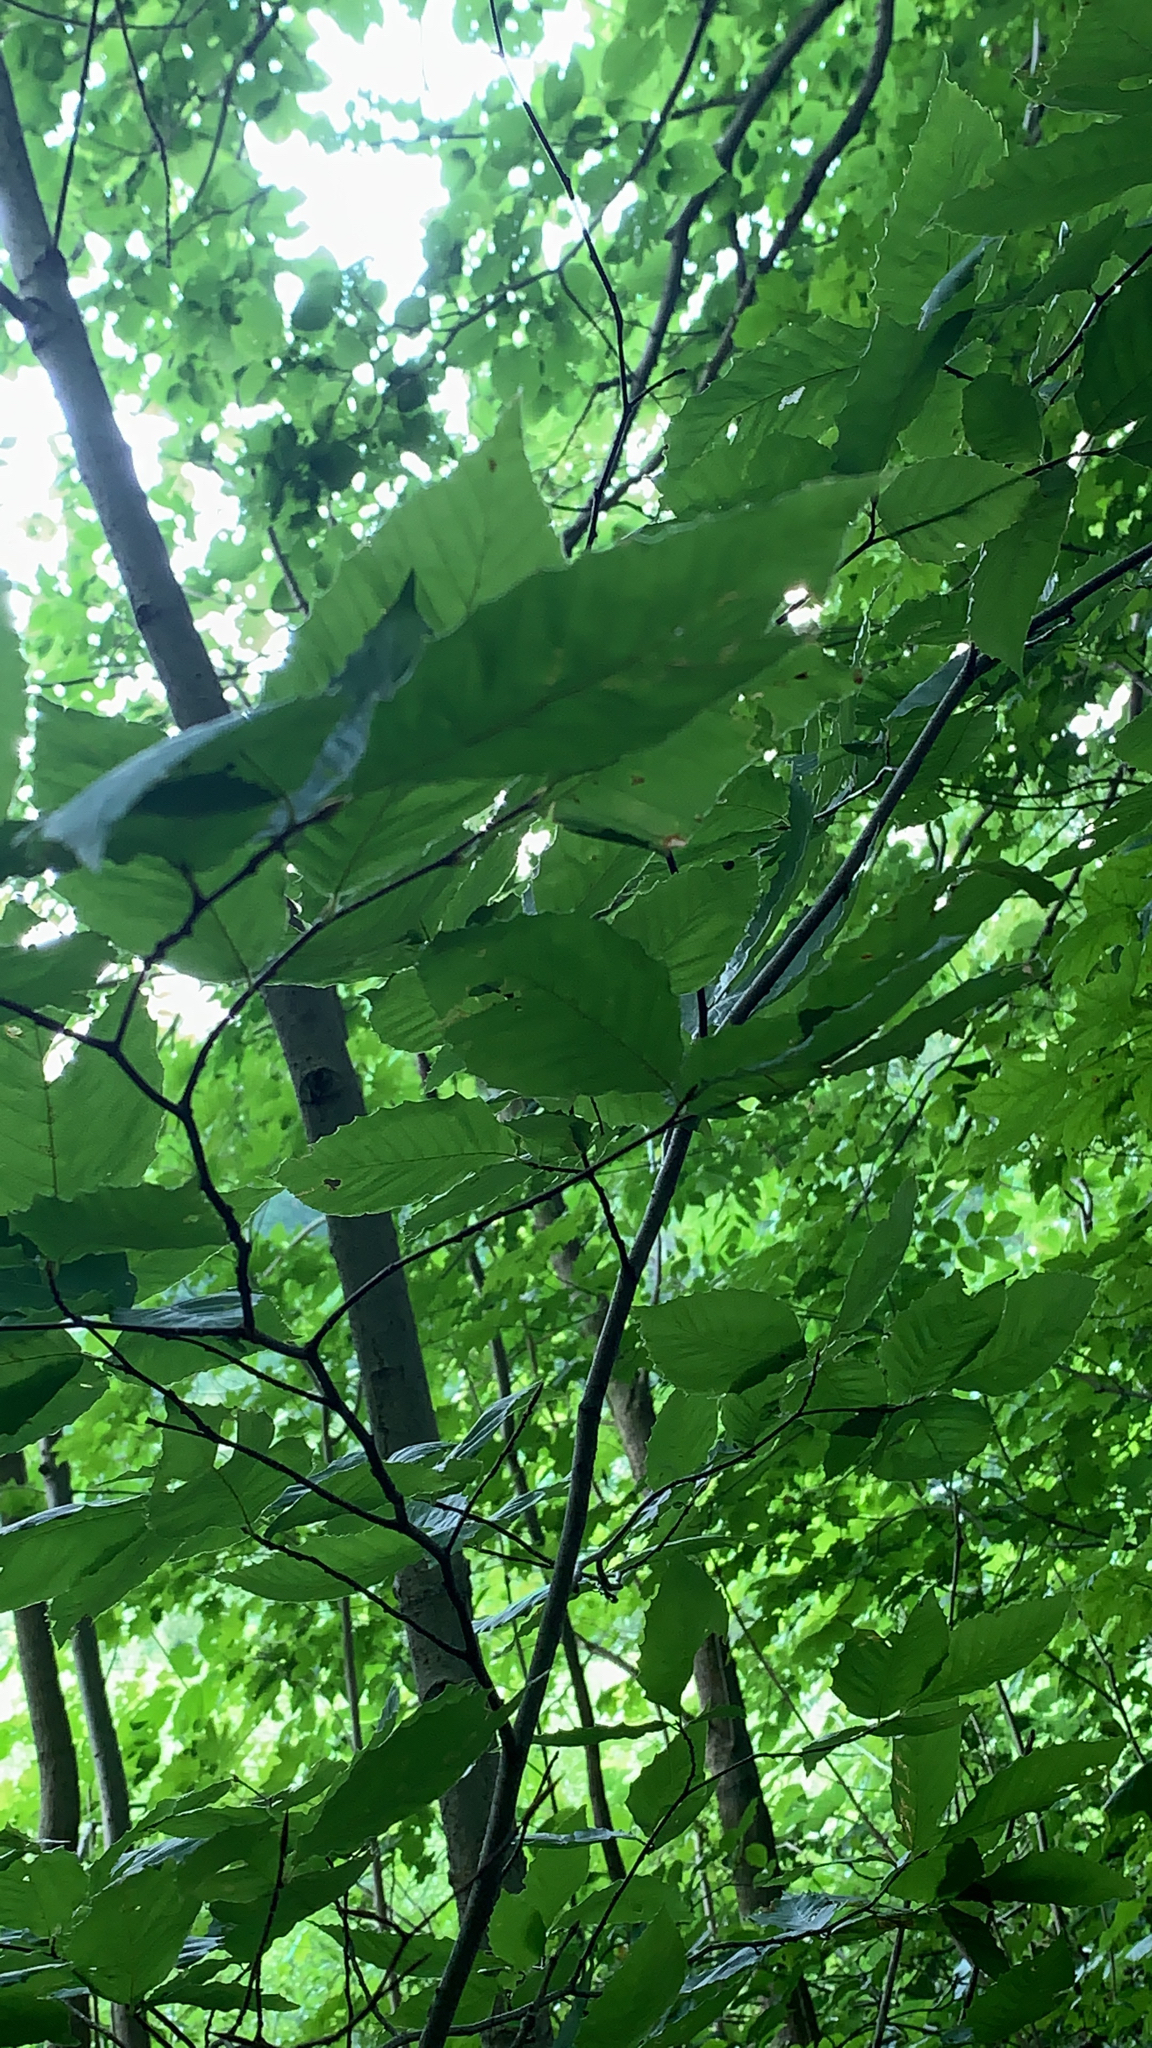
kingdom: Plantae
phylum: Tracheophyta
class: Magnoliopsida
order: Fagales
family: Fagaceae
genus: Fagus
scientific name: Fagus grandifolia
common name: American beech
